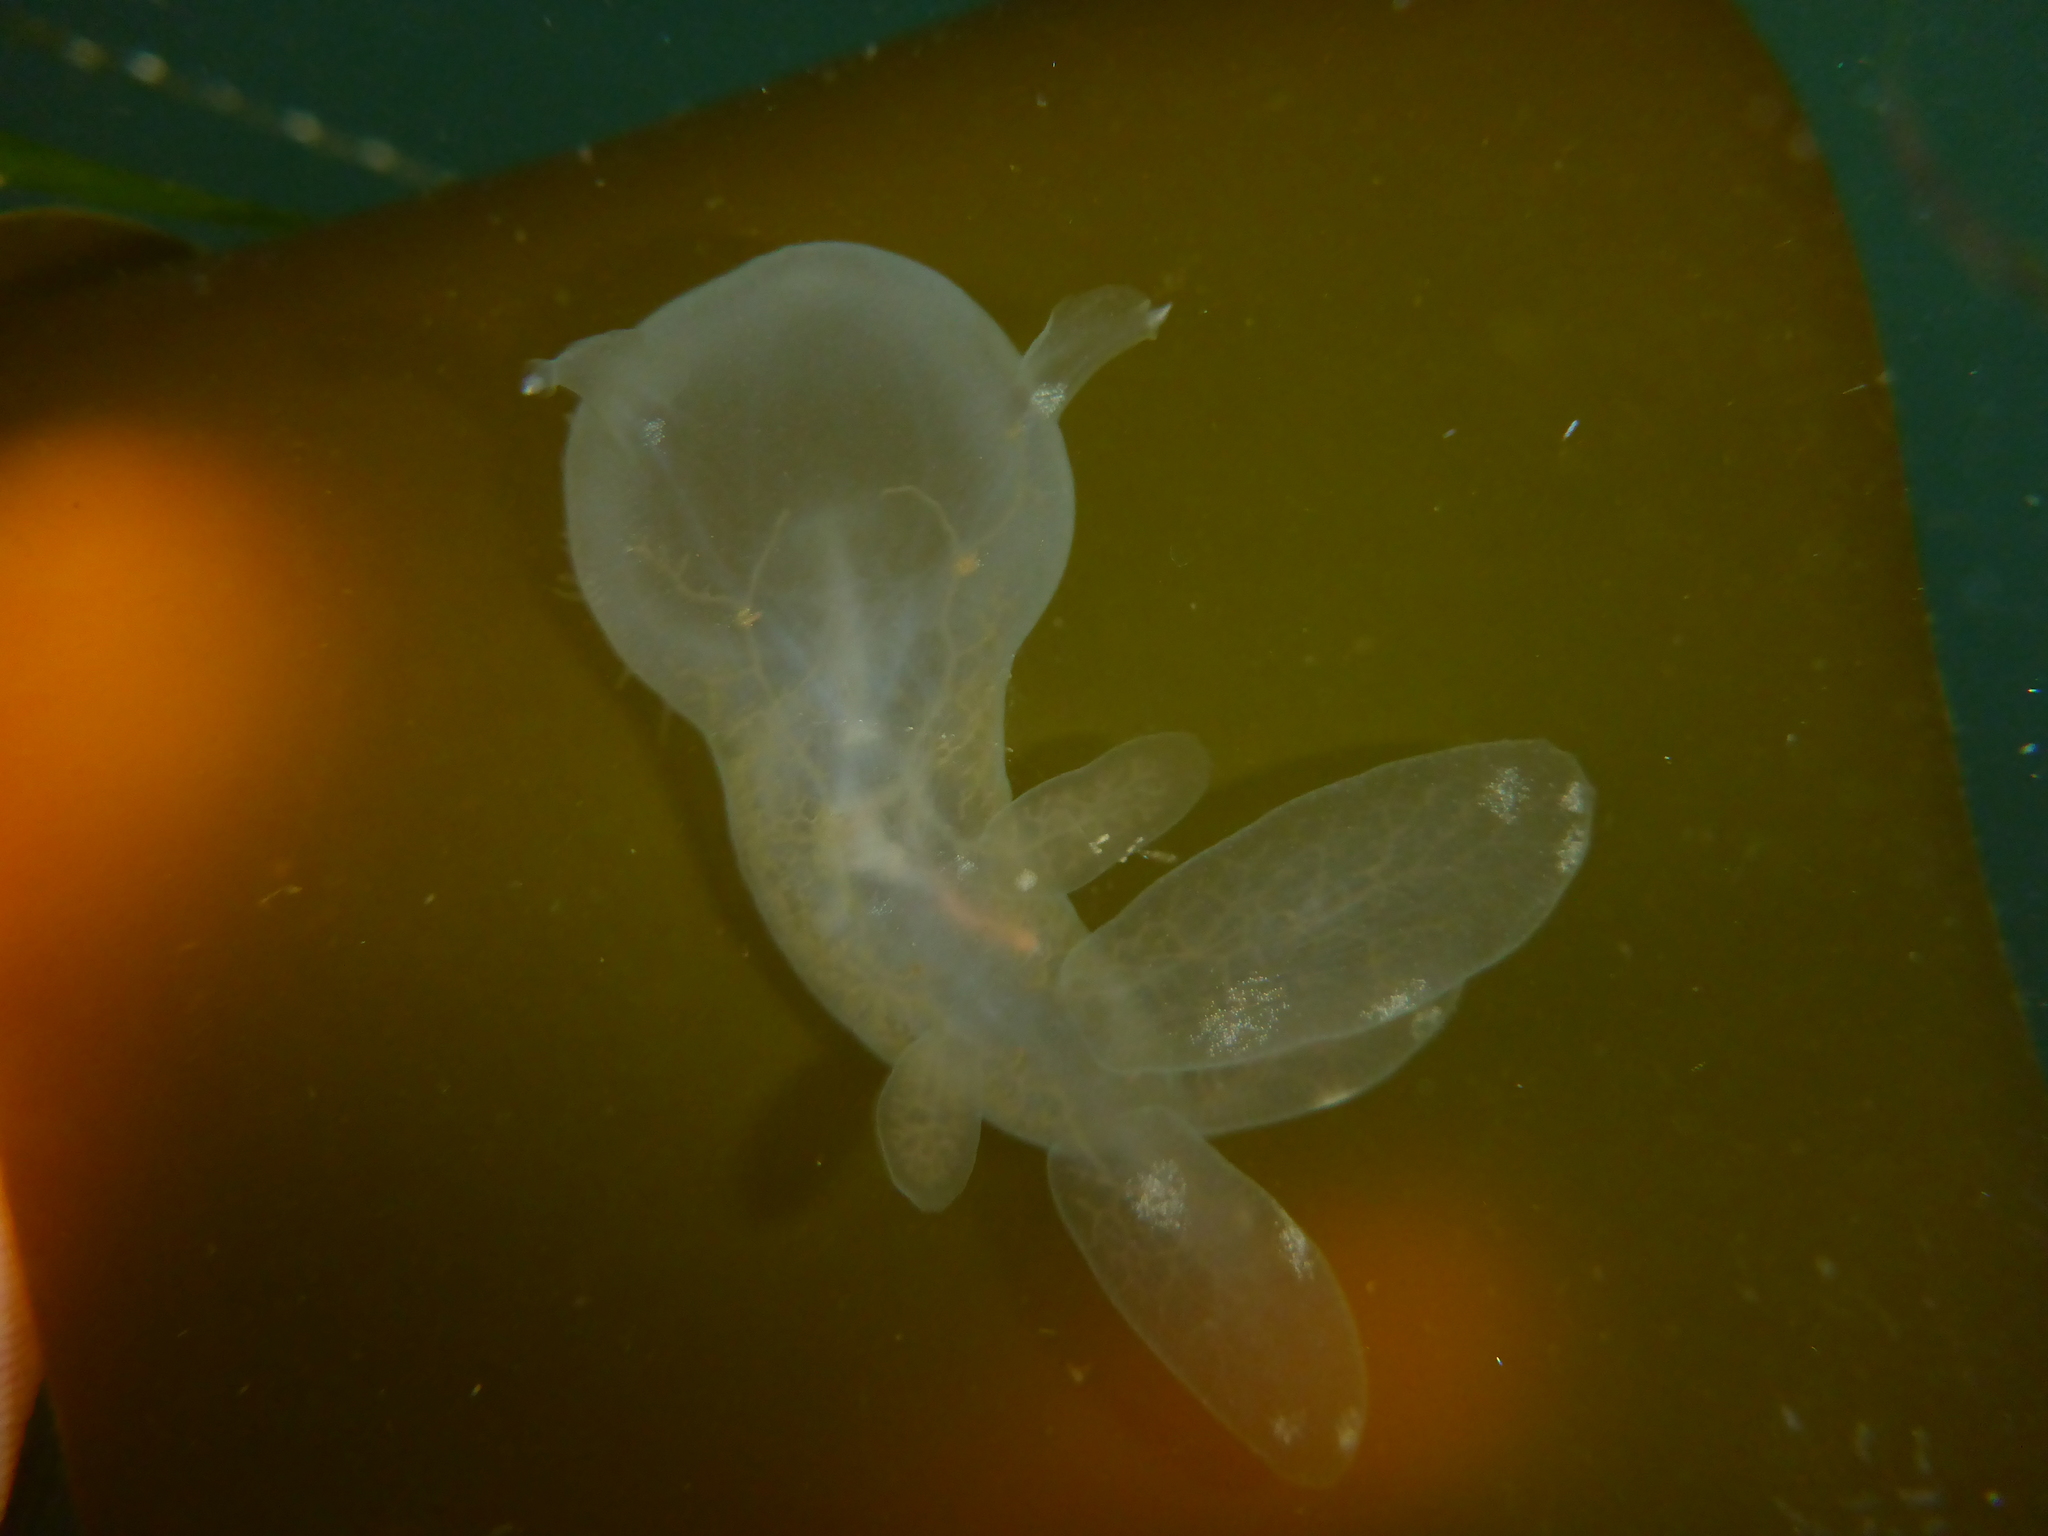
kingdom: Animalia
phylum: Mollusca
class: Gastropoda
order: Nudibranchia
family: Tethydidae
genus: Melibe
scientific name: Melibe leonina
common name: Lion nudibranch
